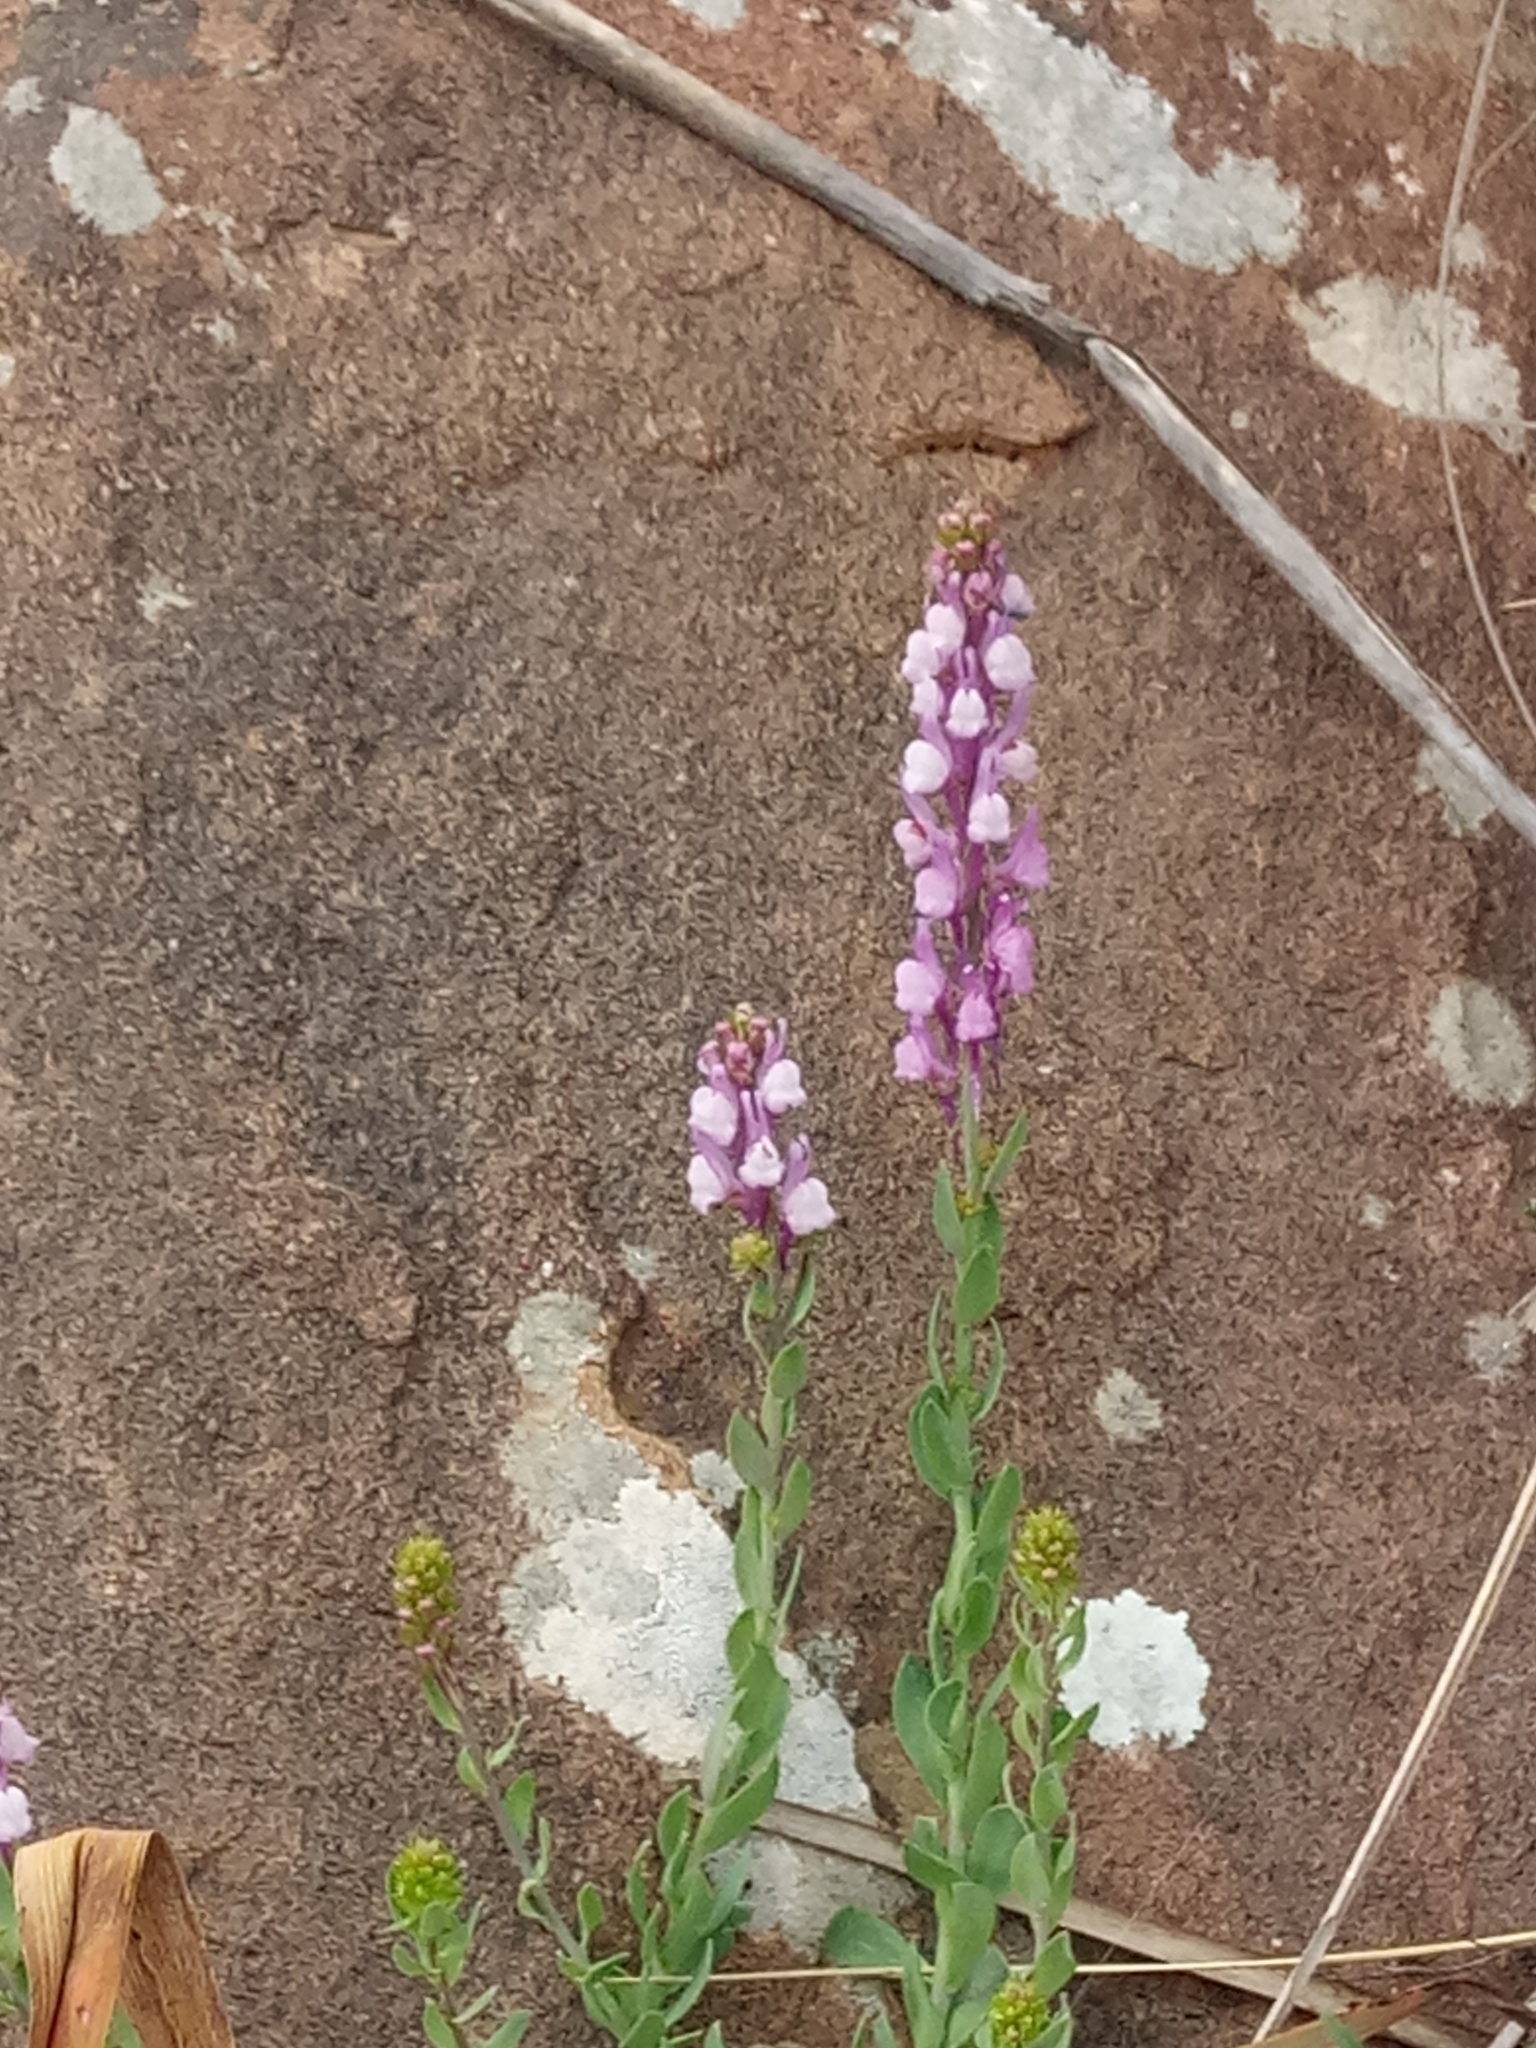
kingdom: Plantae
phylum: Tracheophyta
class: Magnoliopsida
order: Lamiales
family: Plantaginaceae
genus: Linaria
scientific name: Linaria virgata
